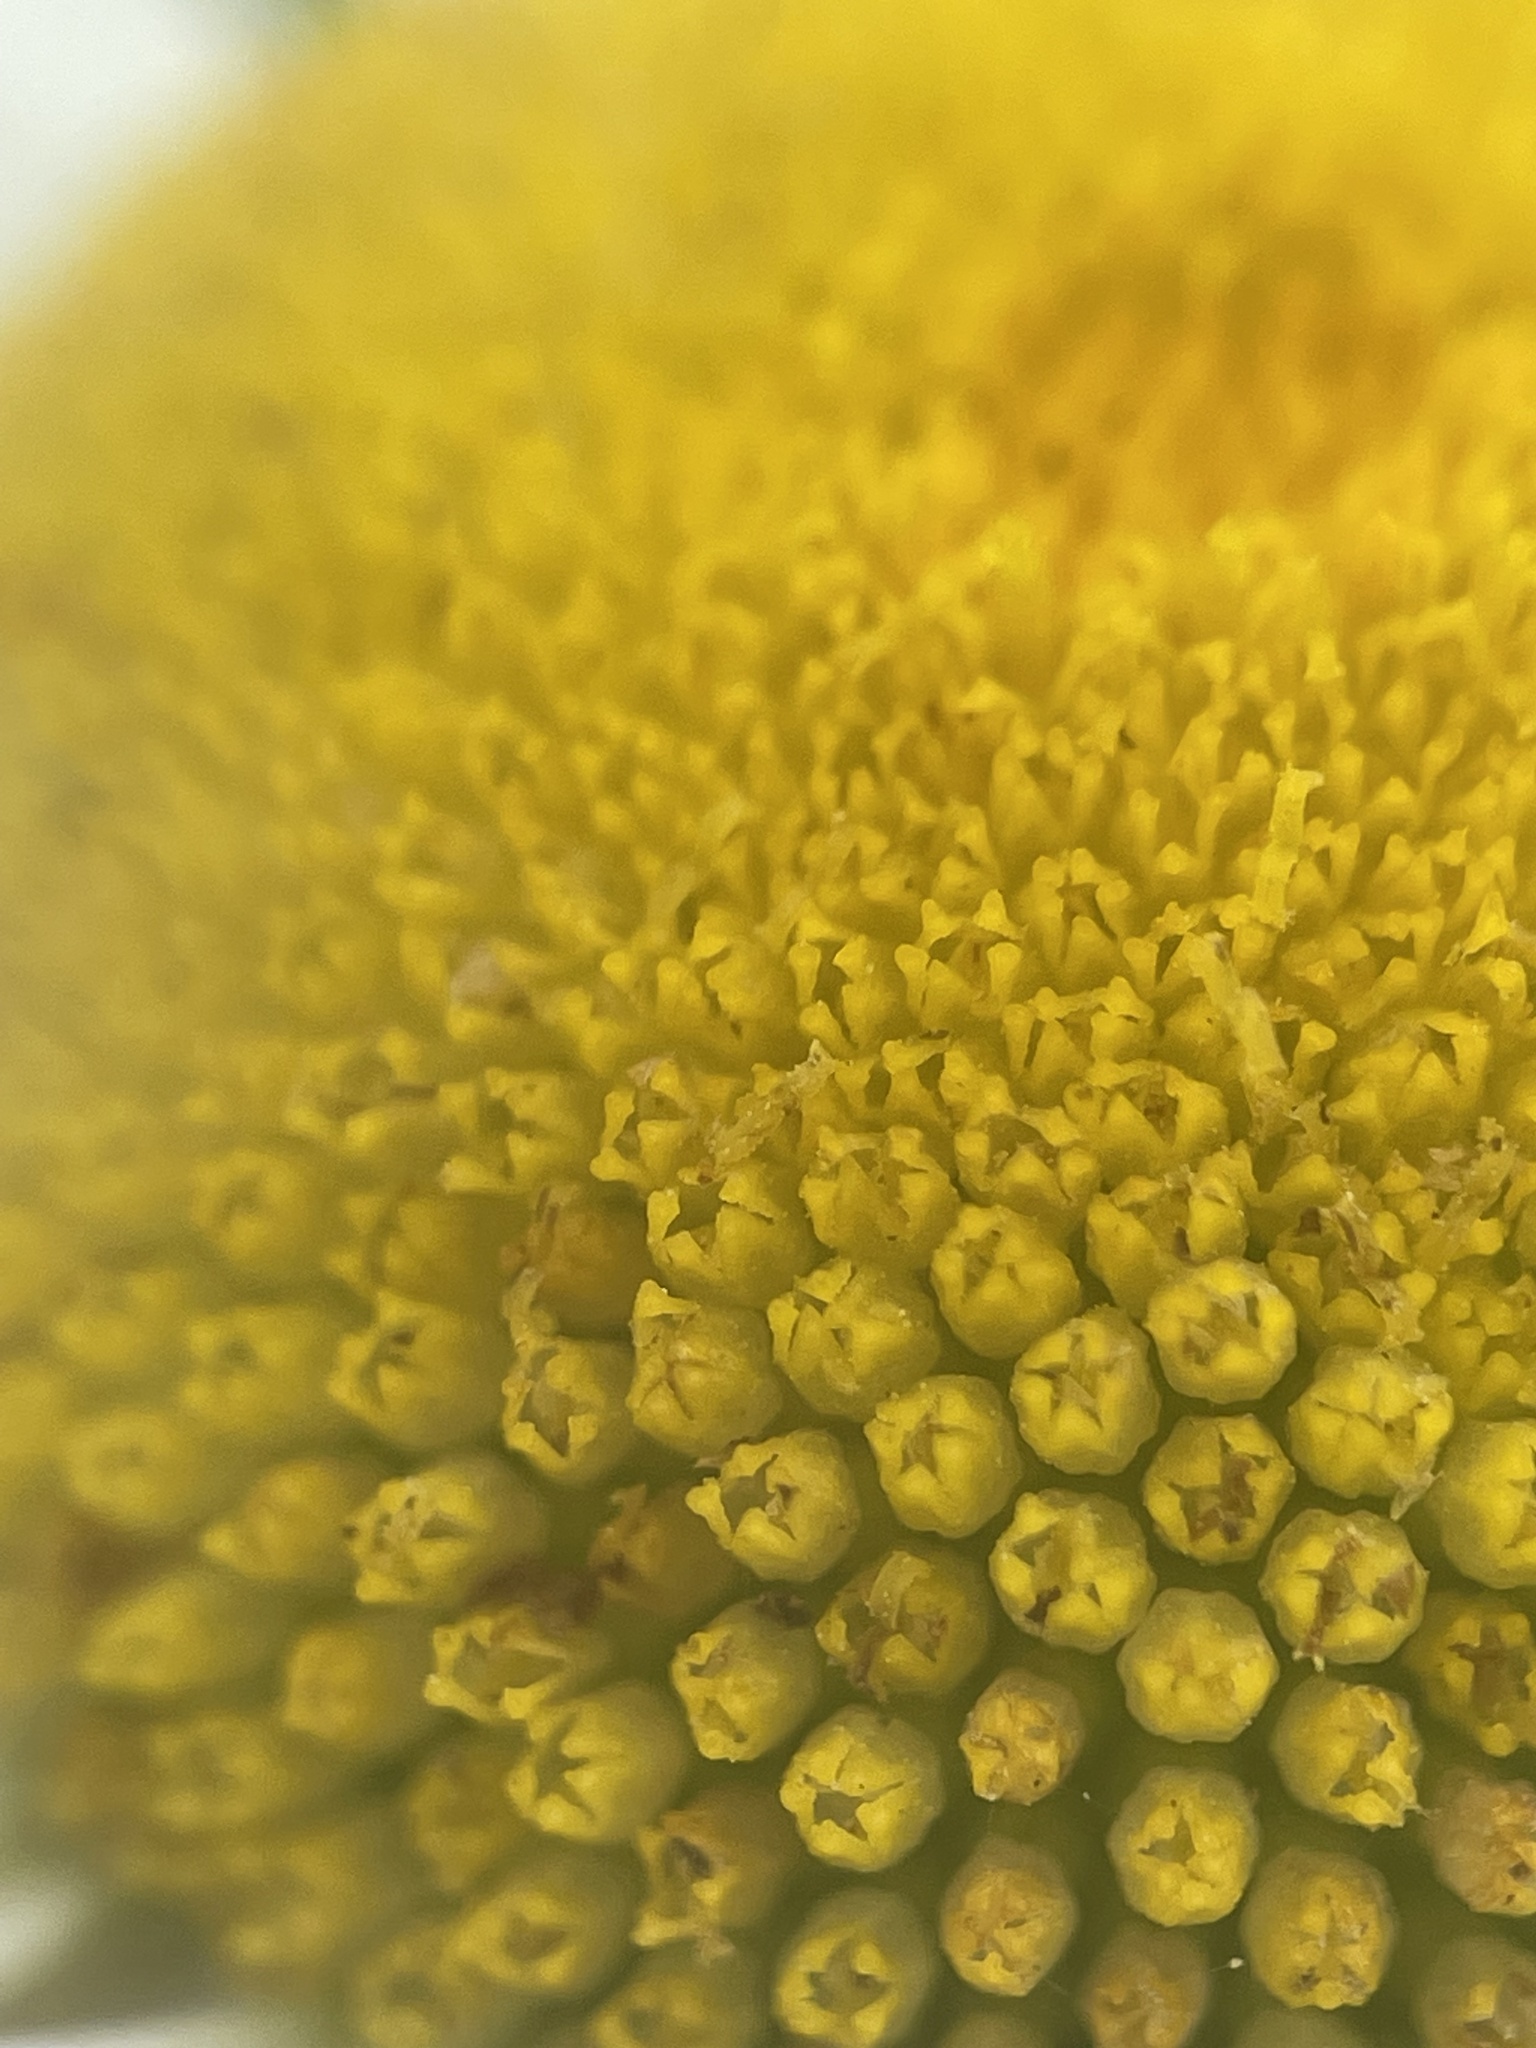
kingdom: Plantae
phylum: Tracheophyta
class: Magnoliopsida
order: Asterales
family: Asteraceae
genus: Leucanthemum
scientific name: Leucanthemum vulgare
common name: Oxeye daisy
